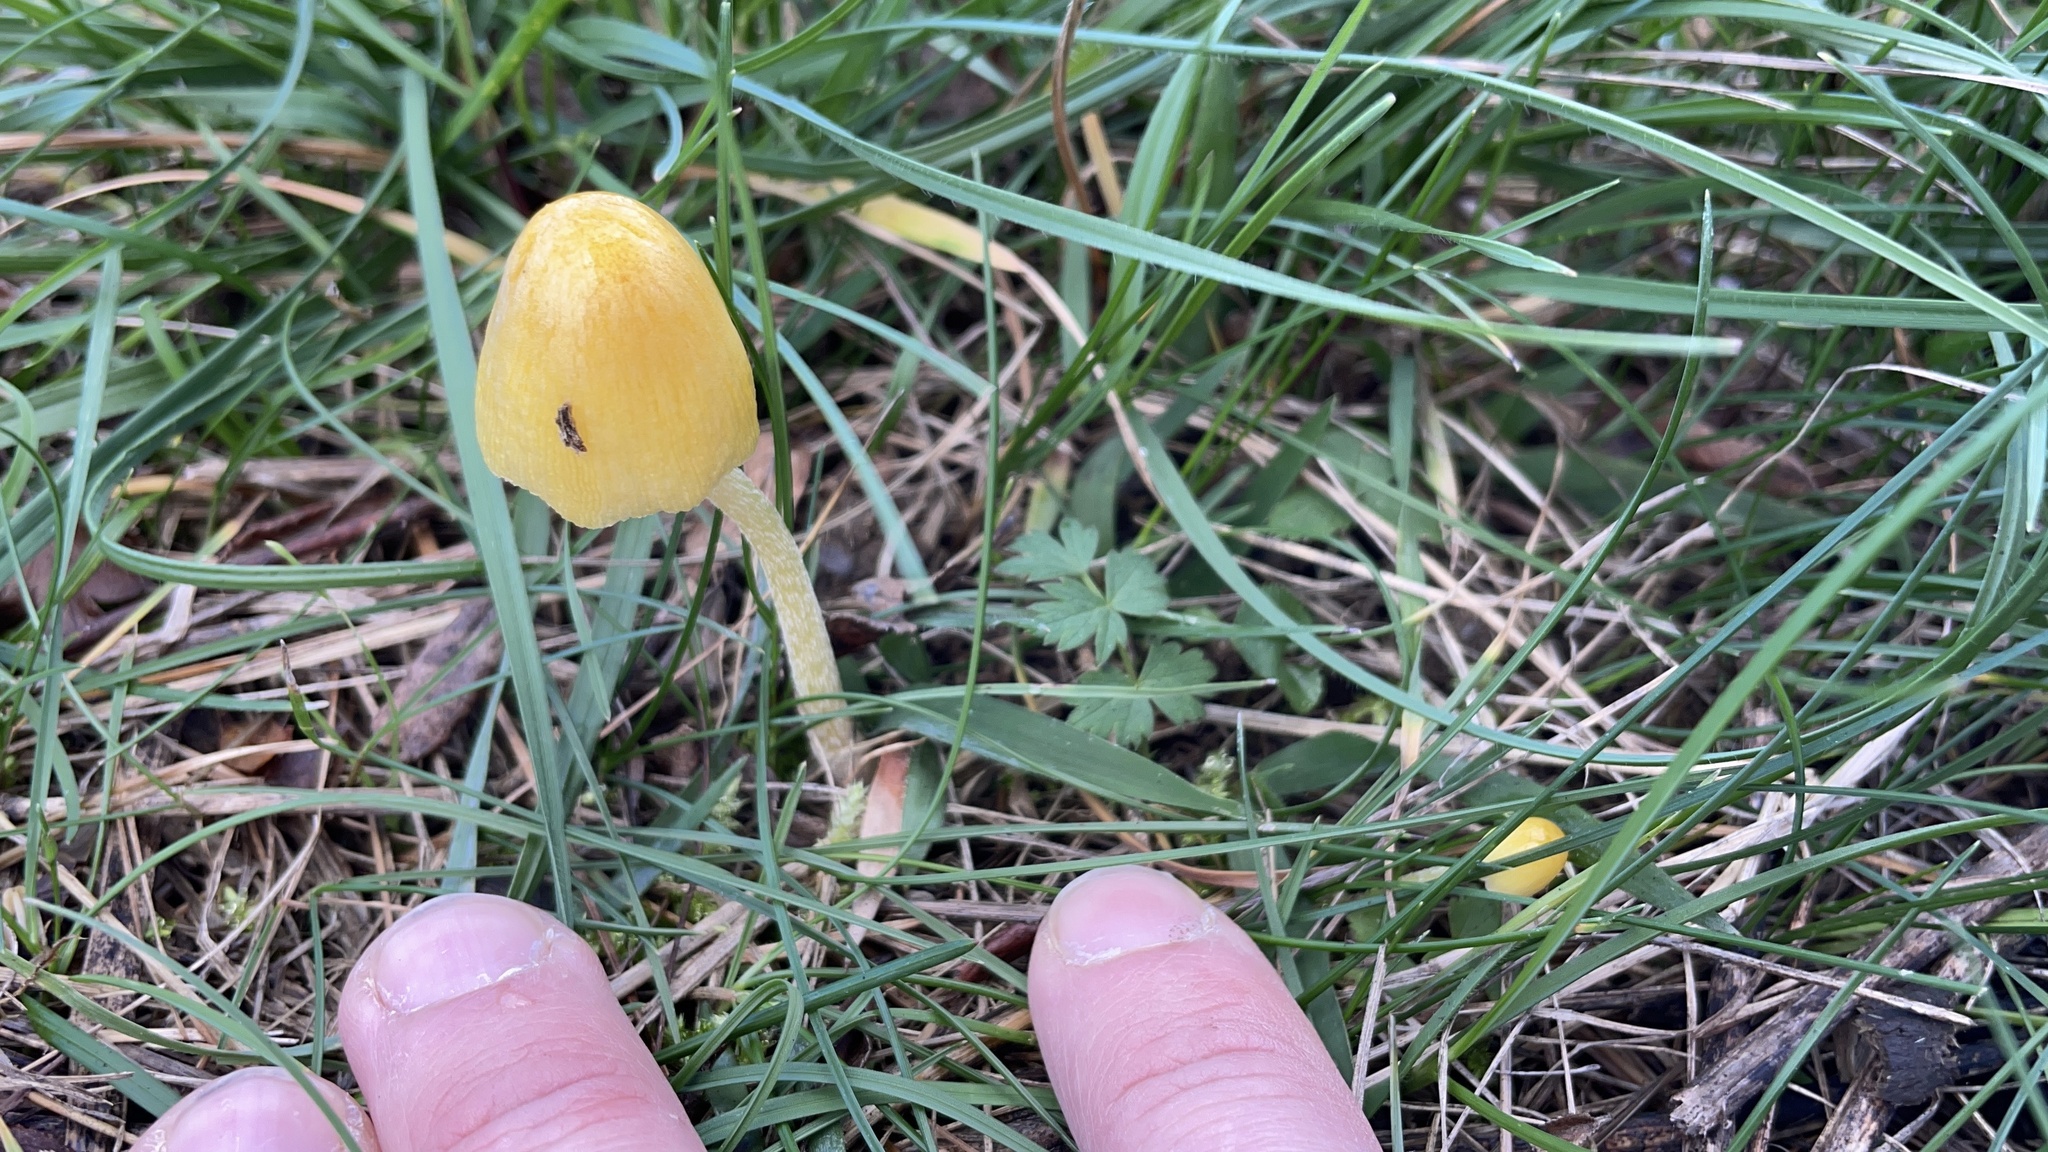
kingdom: Fungi
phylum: Basidiomycota
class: Agaricomycetes
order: Agaricales
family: Bolbitiaceae
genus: Bolbitius
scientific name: Bolbitius titubans
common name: Yellow fieldcap
